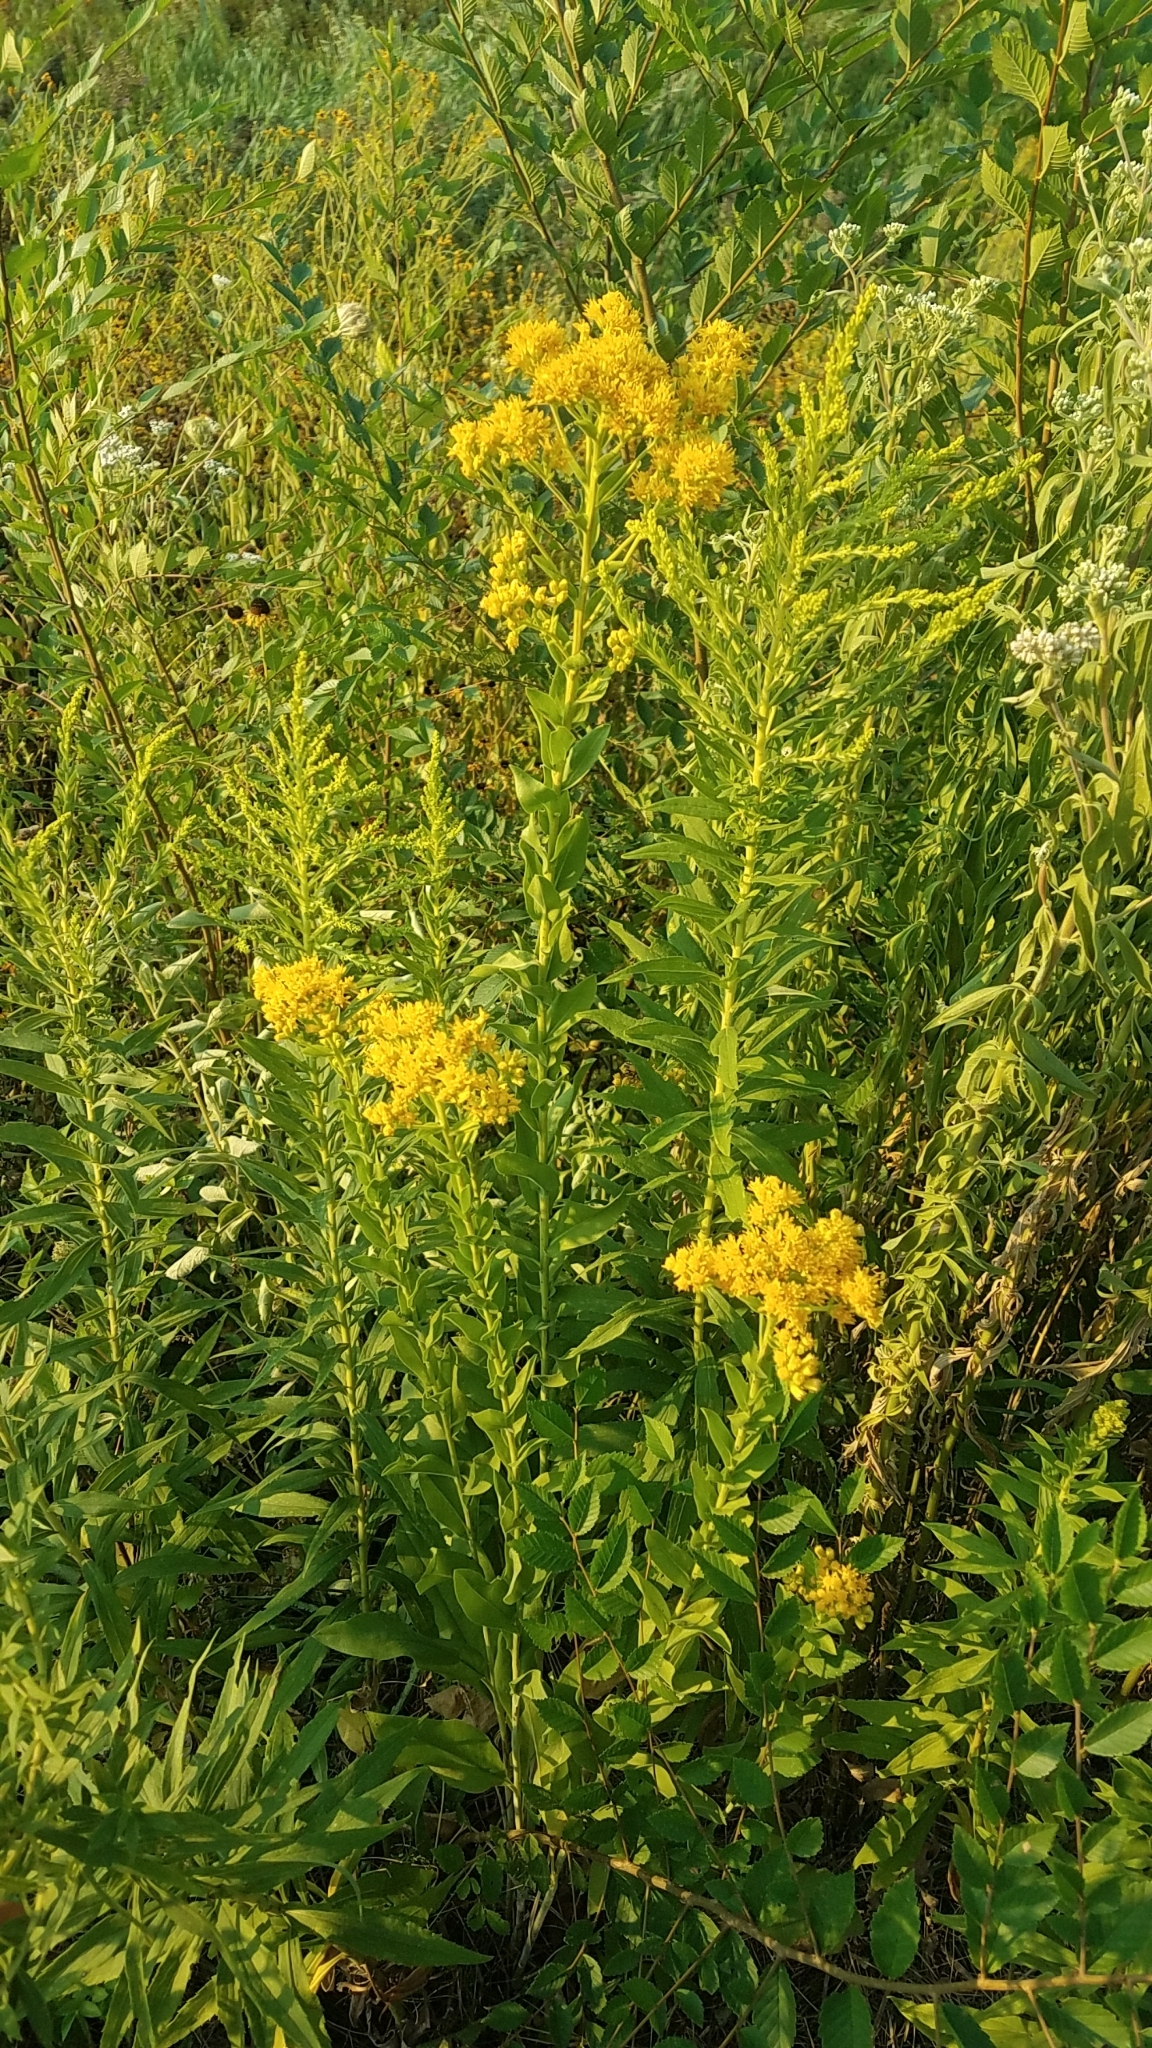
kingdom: Plantae
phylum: Tracheophyta
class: Magnoliopsida
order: Asterales
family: Asteraceae
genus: Solidago
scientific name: Solidago rigida
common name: Rigid goldenrod
